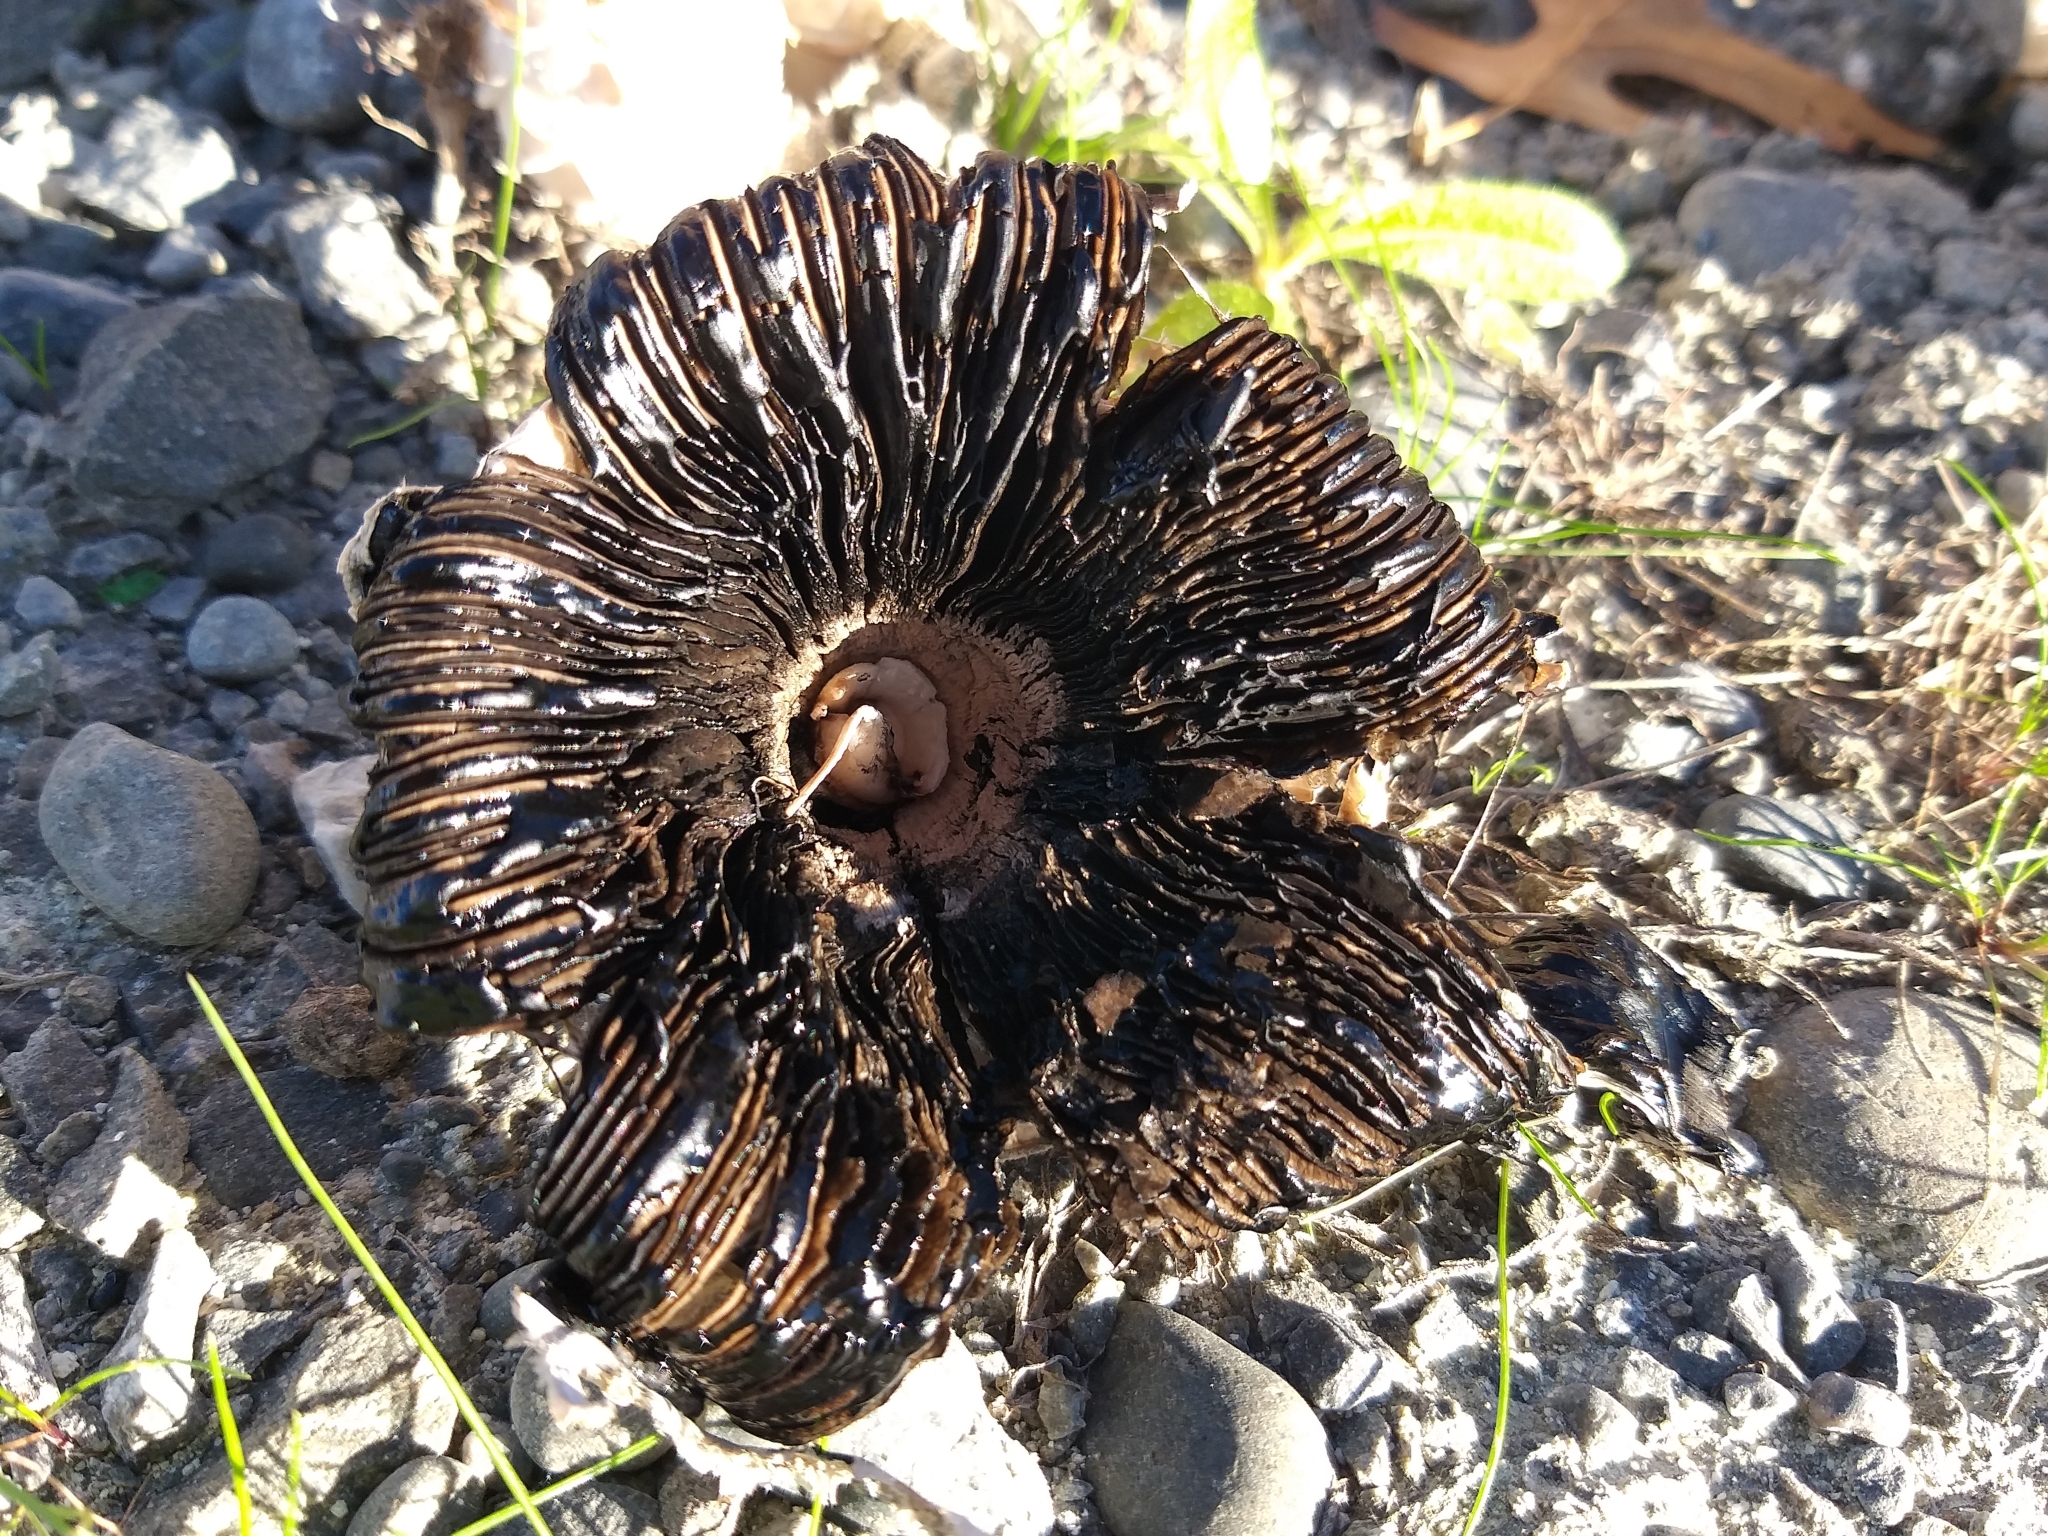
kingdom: Fungi
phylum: Basidiomycota
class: Agaricomycetes
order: Agaricales
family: Agaricaceae
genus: Coprinus
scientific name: Coprinus comatus
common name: Lawyer's wig
